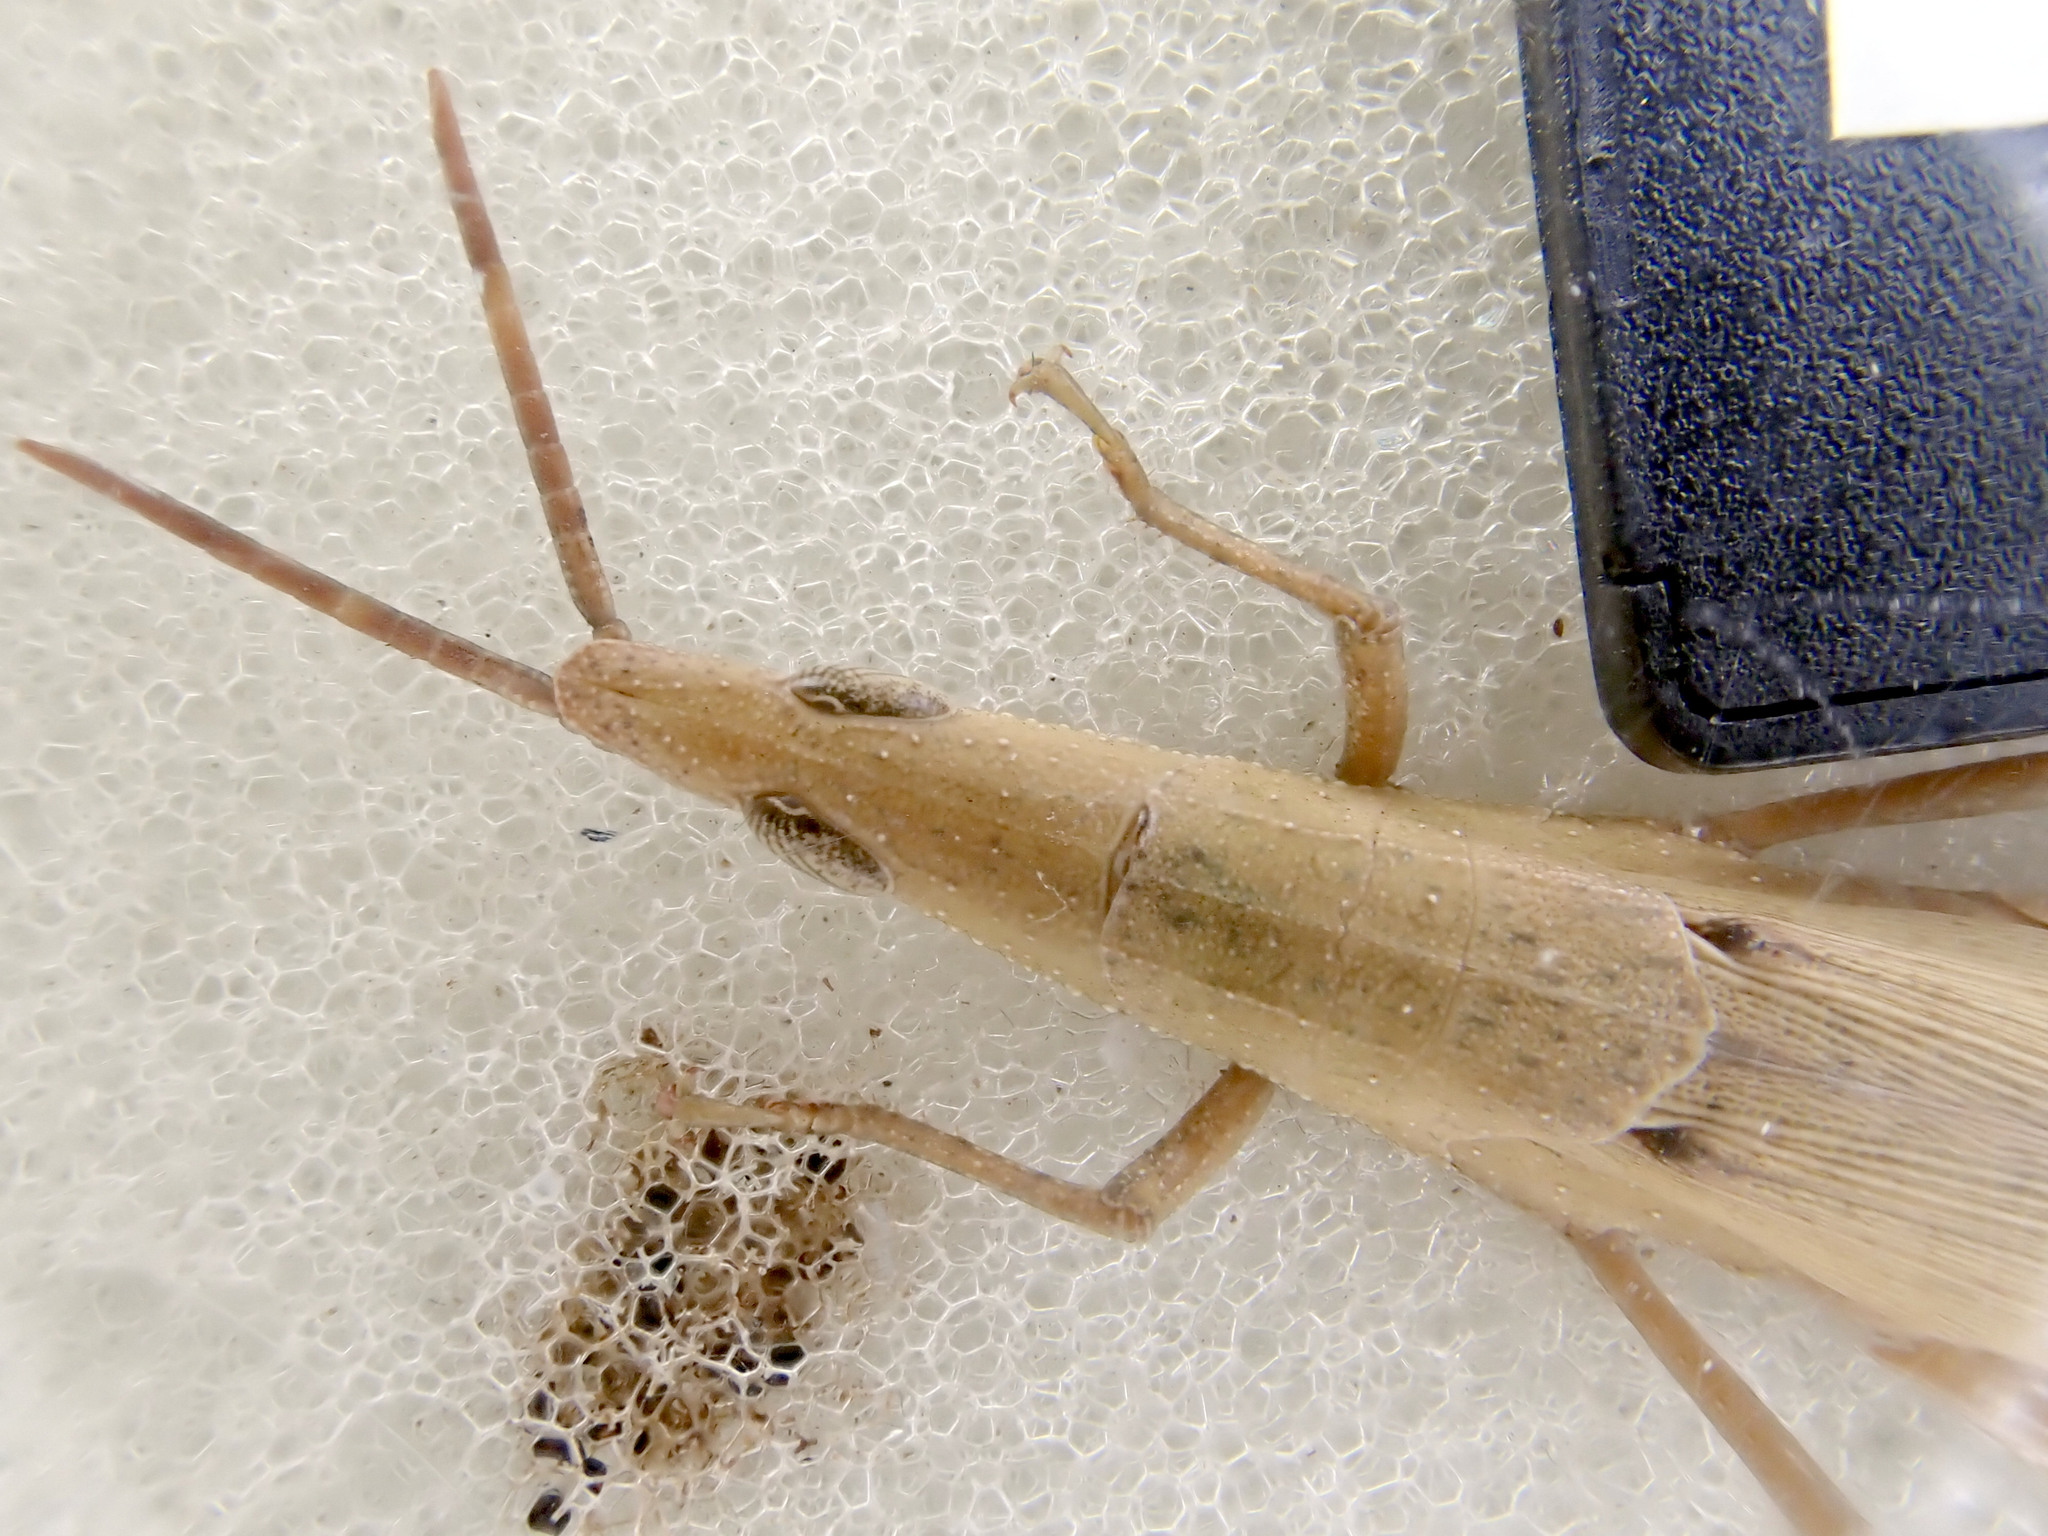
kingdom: Animalia
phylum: Arthropoda
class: Insecta
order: Orthoptera
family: Pyrgomorphidae
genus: Atractomorpha
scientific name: Atractomorpha similis
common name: Northern grass pyrgomorph
